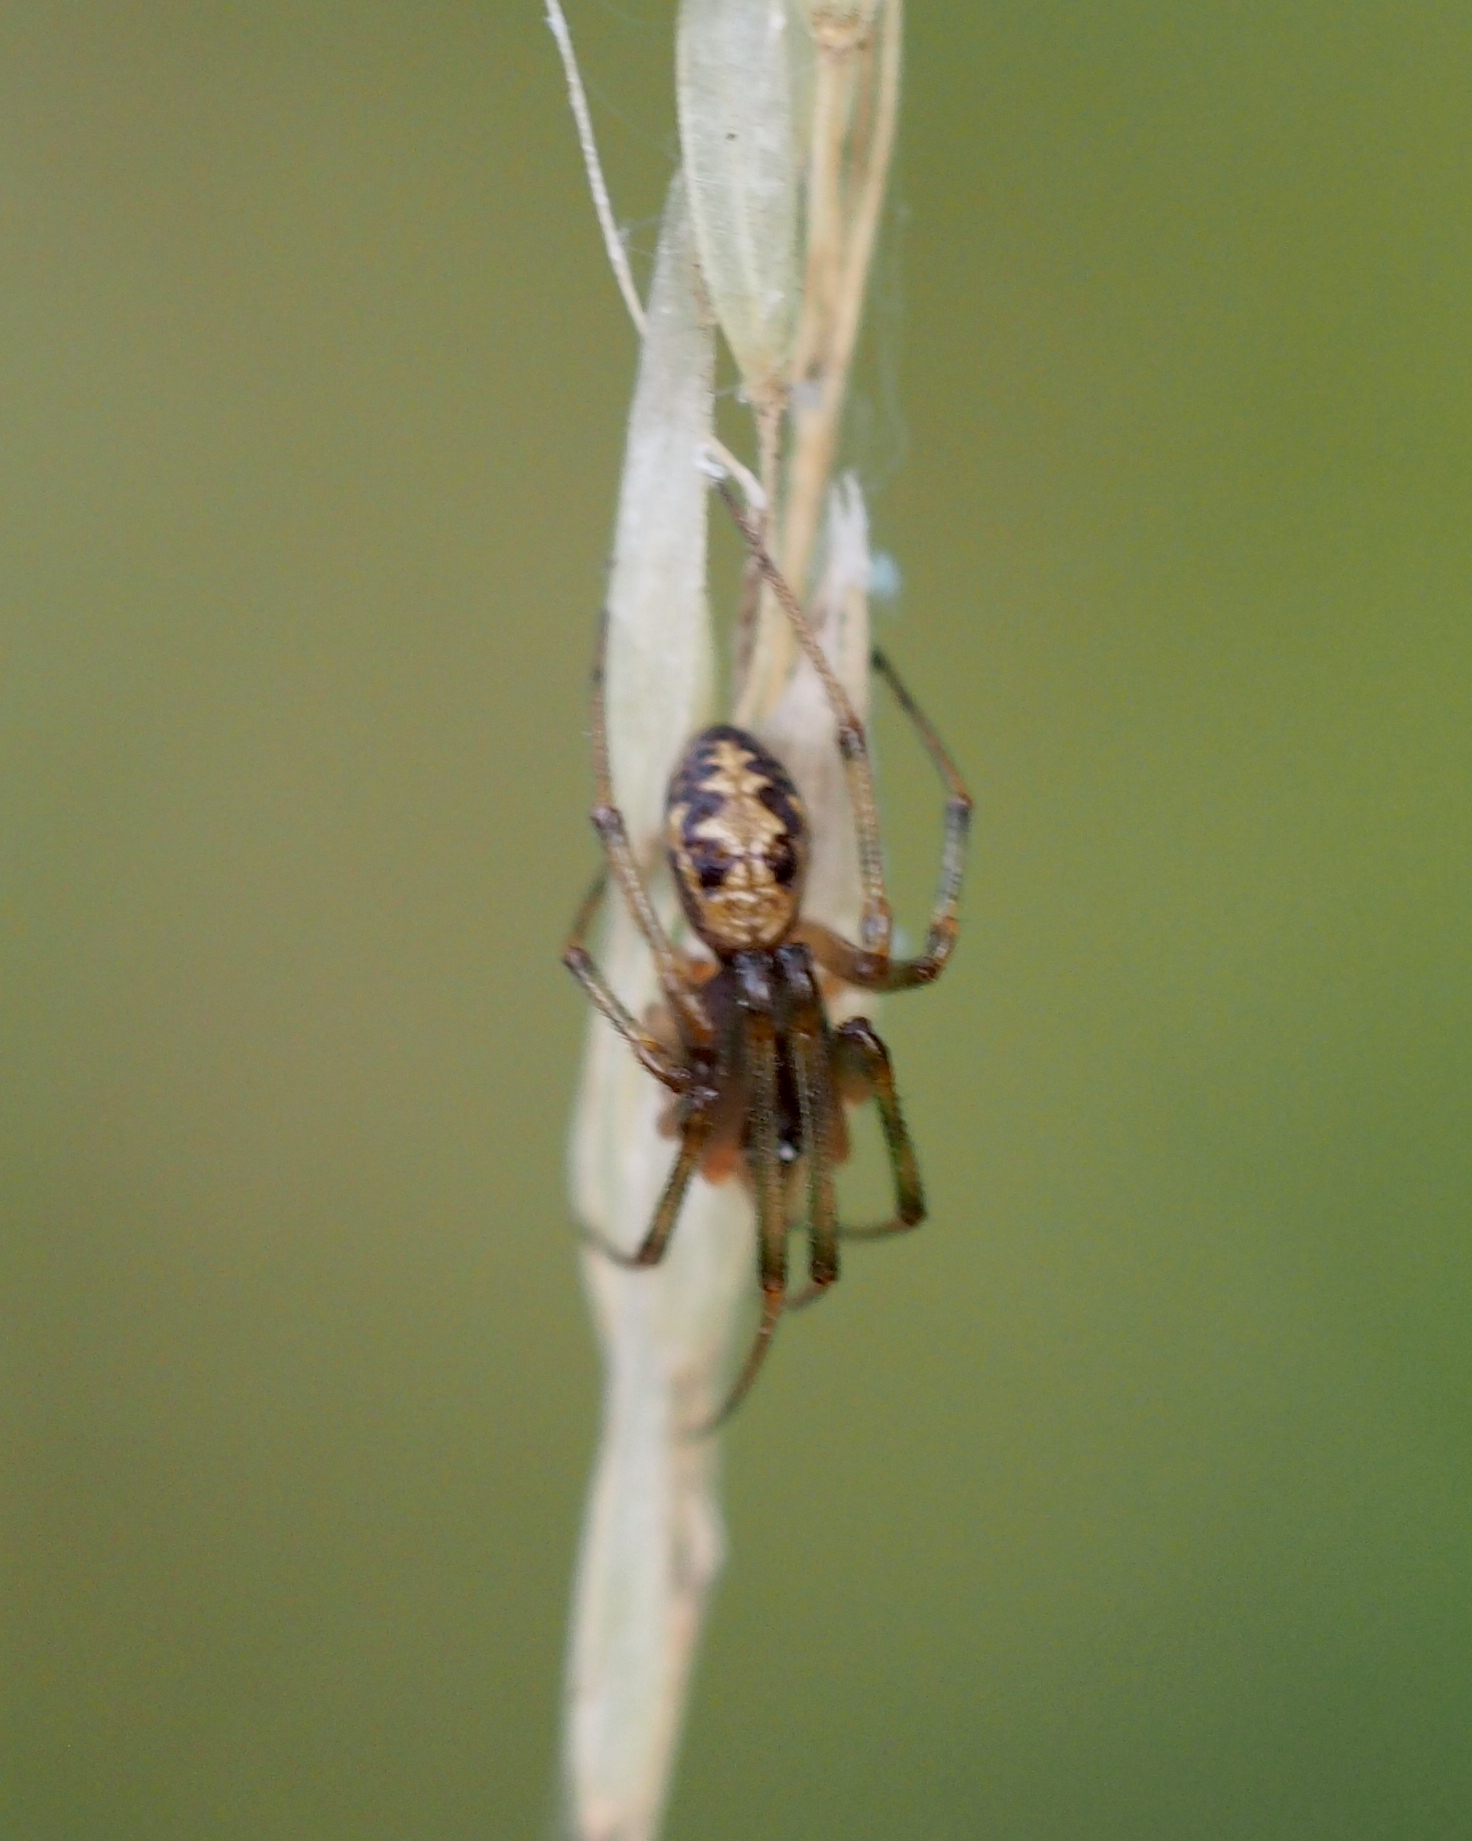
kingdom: Animalia
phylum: Arthropoda
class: Arachnida
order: Araneae
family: Theridiidae
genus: Steatoda
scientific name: Steatoda triangulosa
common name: Triangulate bud spider
